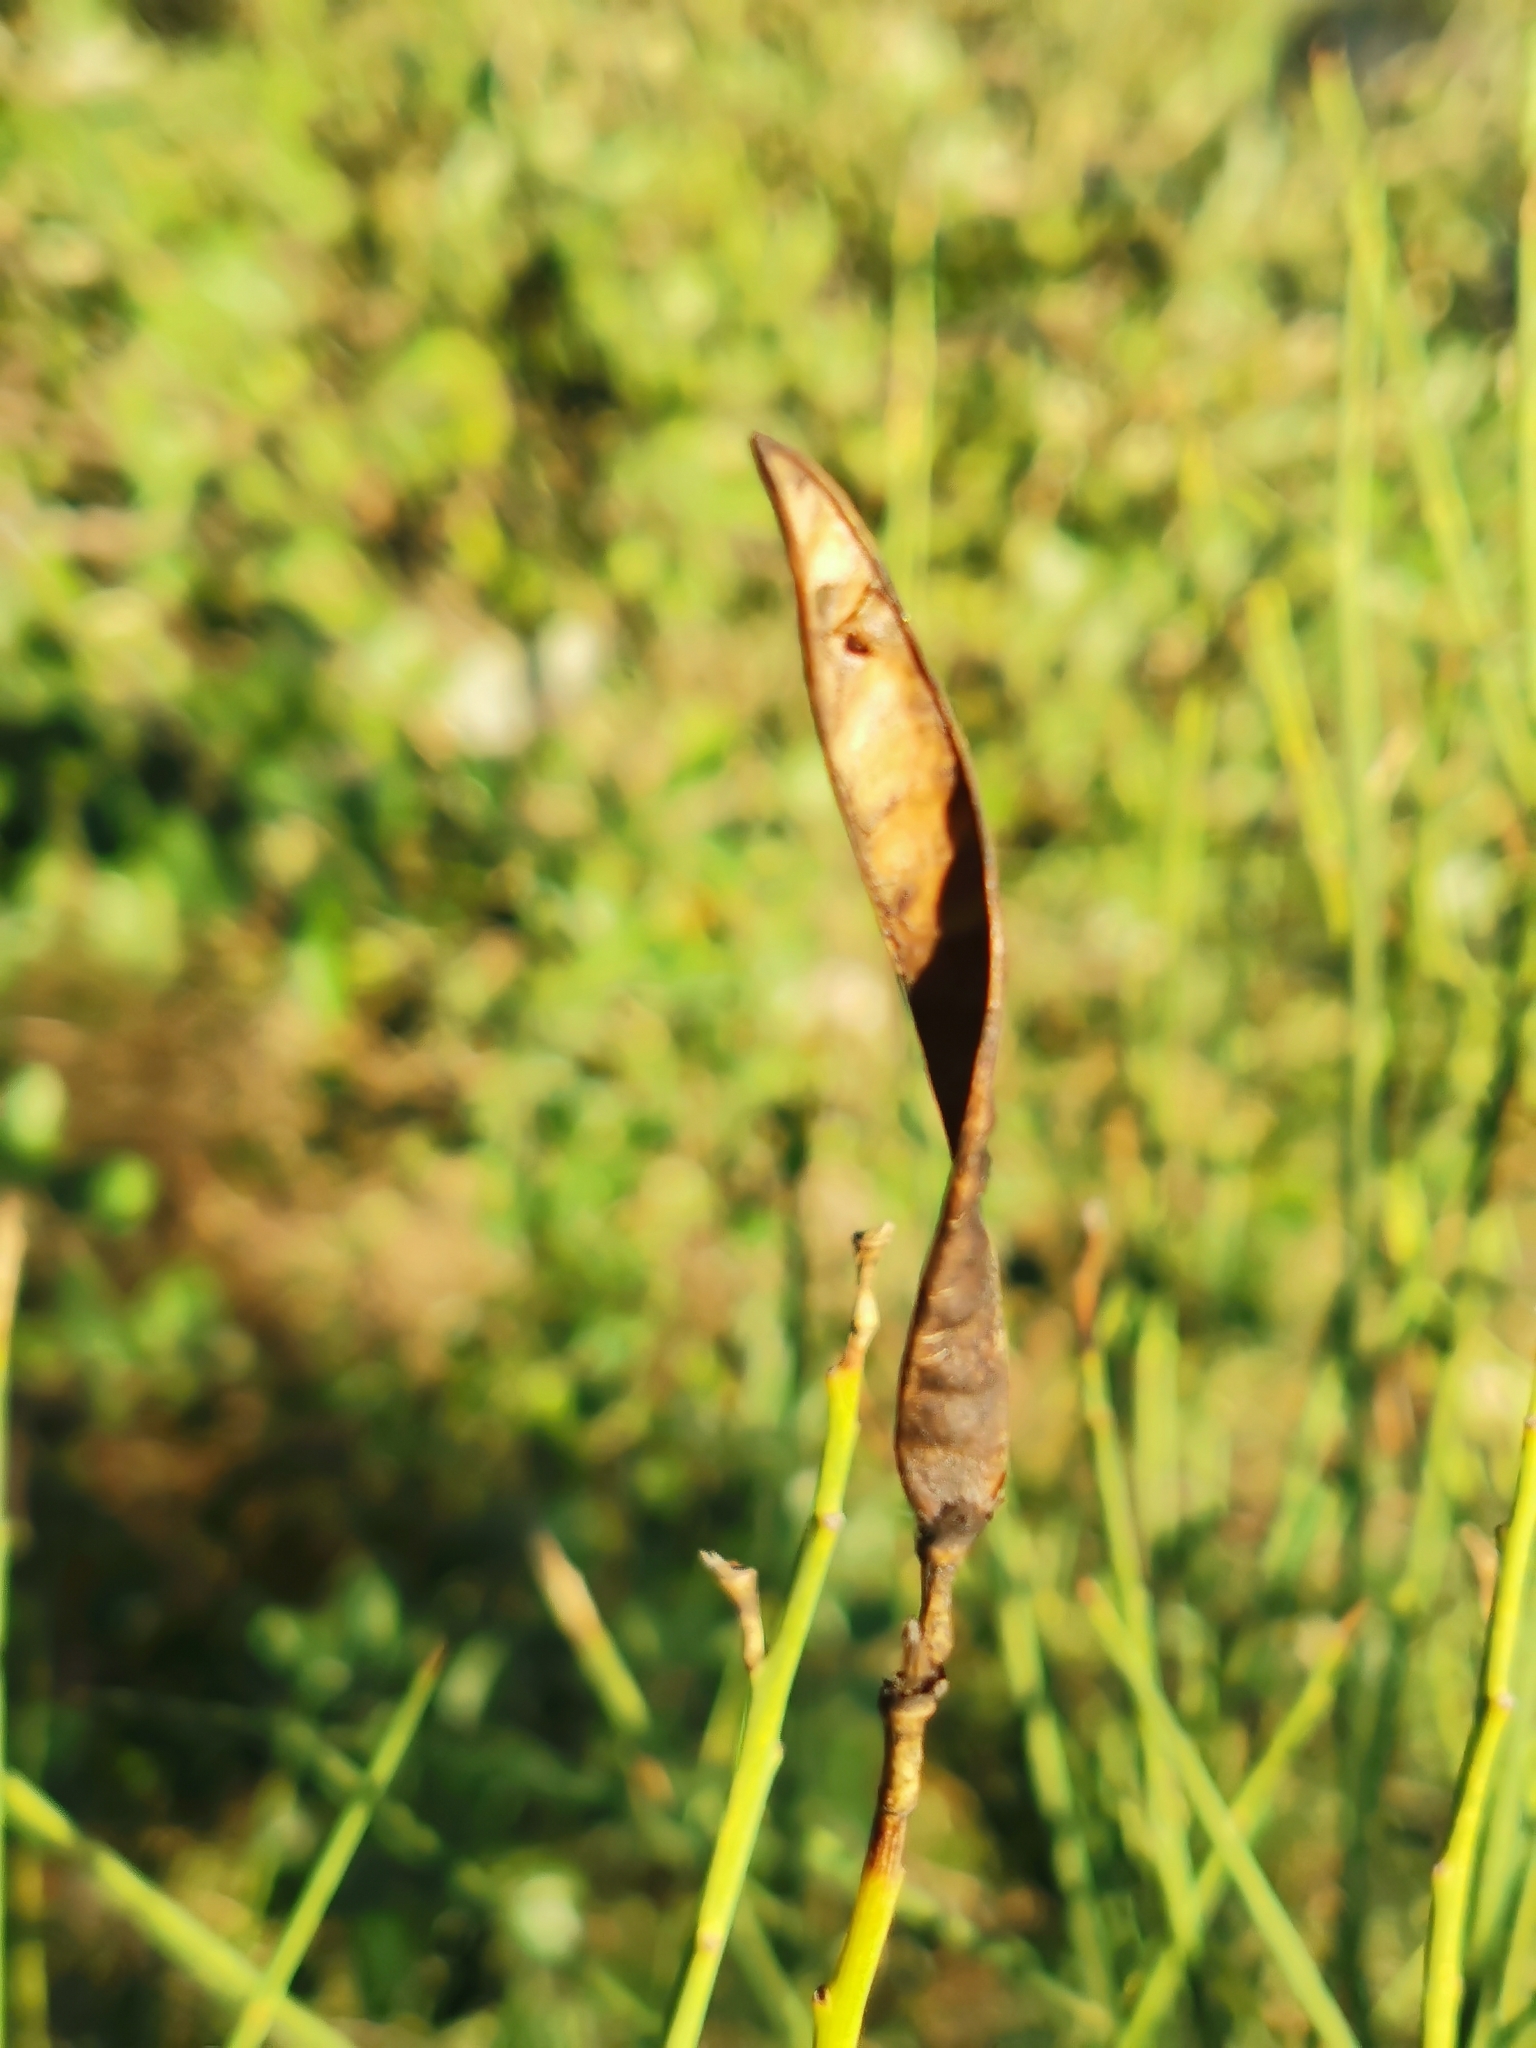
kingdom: Plantae
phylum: Tracheophyta
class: Magnoliopsida
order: Fabales
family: Fabaceae
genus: Spartium
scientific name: Spartium junceum
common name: Spanish broom
